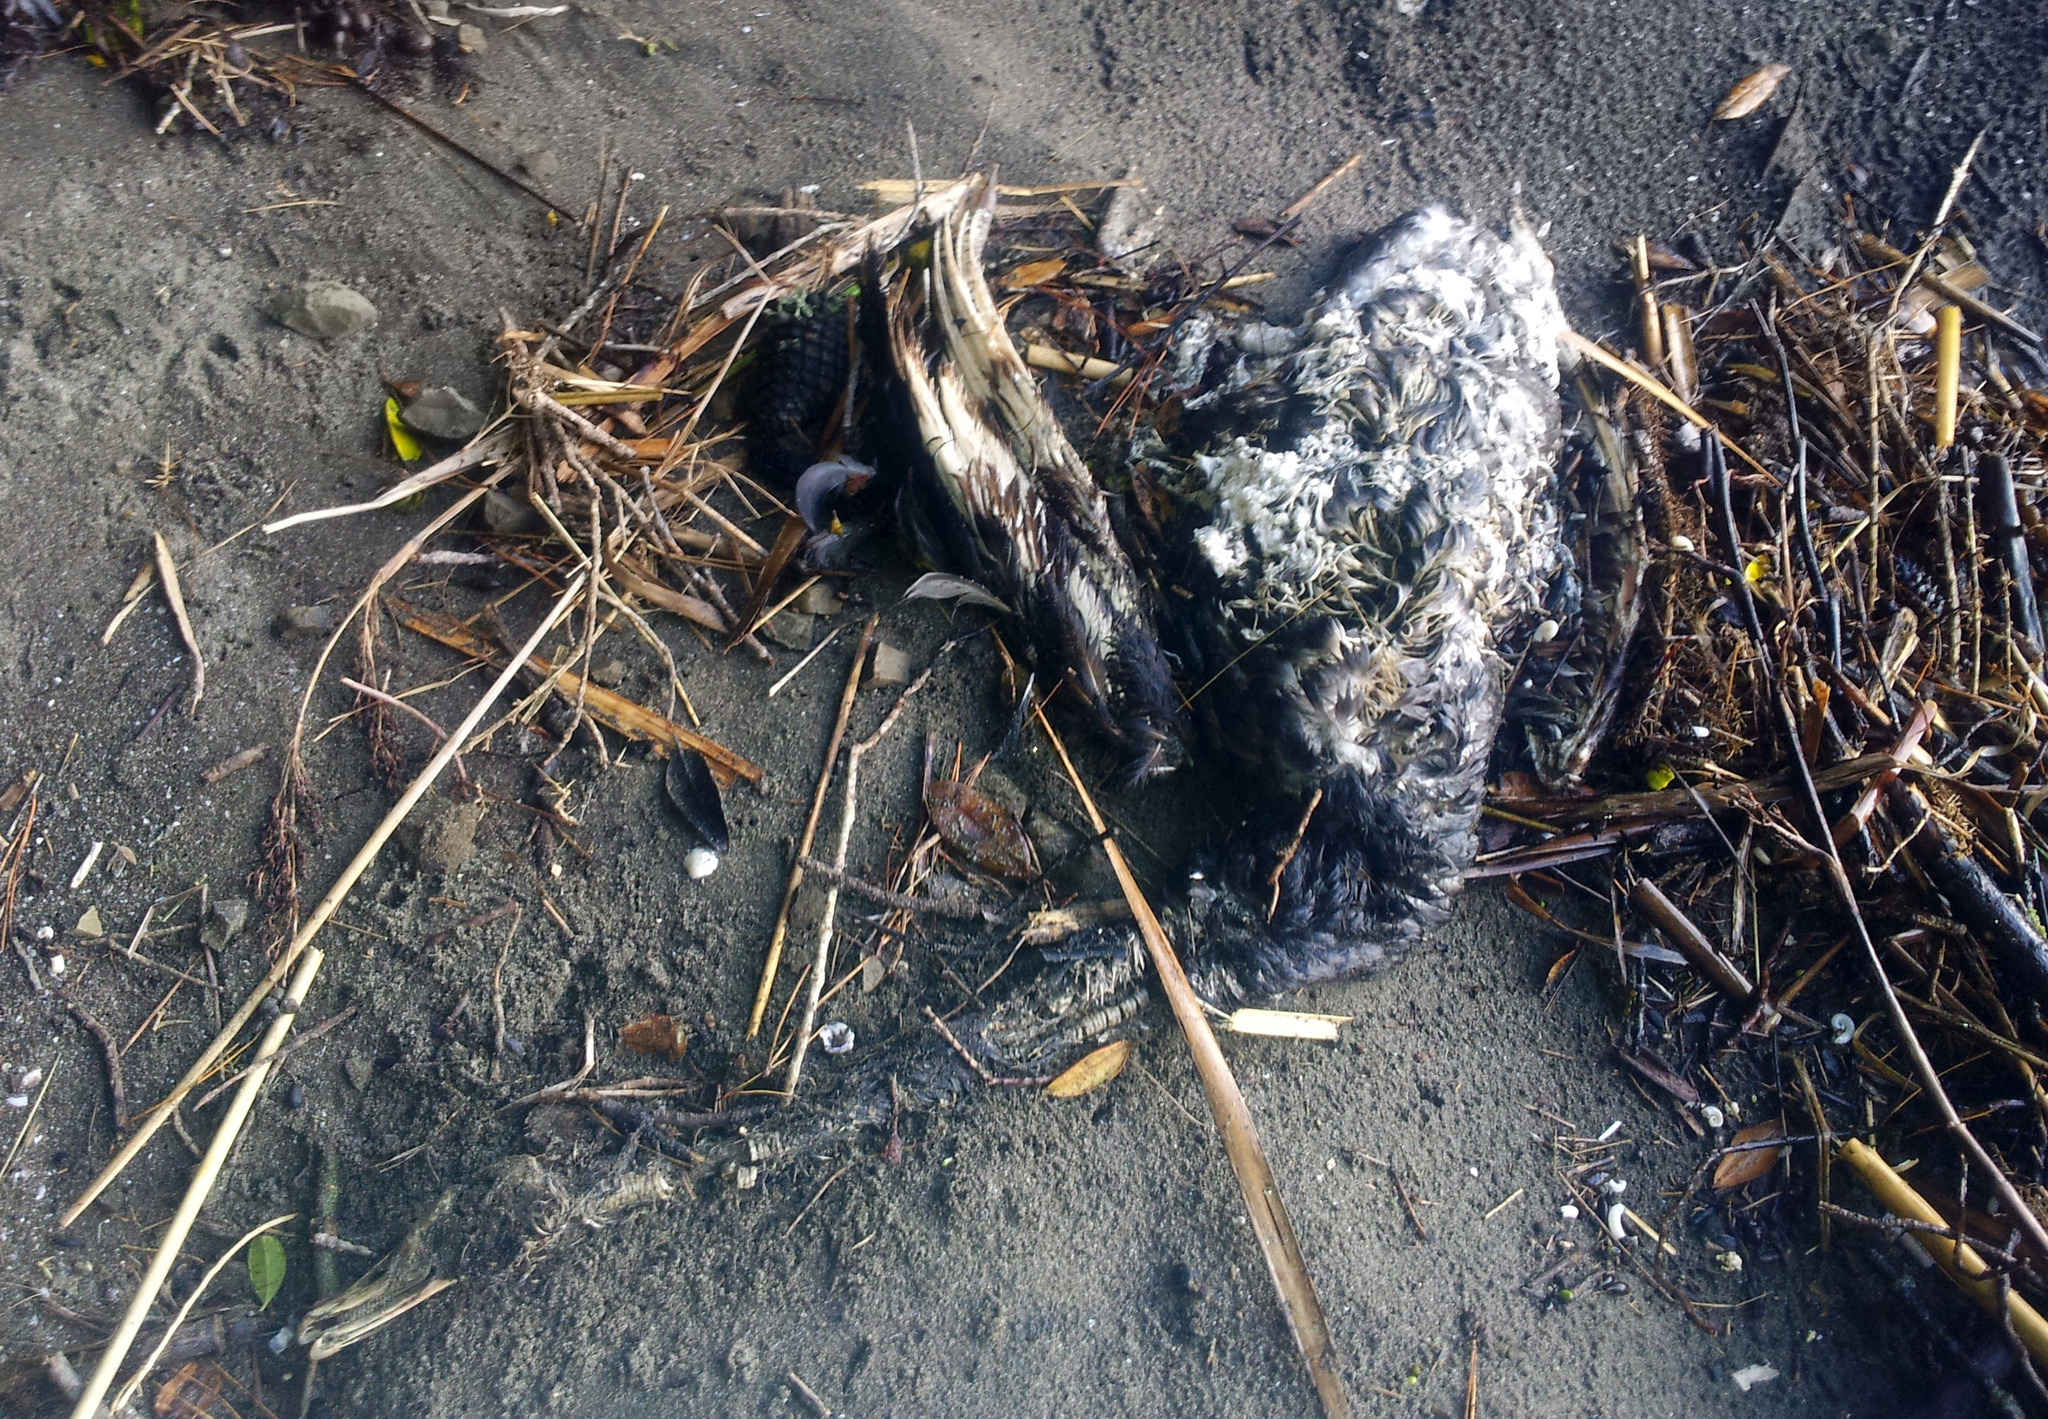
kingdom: Animalia
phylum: Chordata
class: Aves
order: Anseriformes
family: Anatidae
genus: Cygnus
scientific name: Cygnus atratus
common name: Black swan
